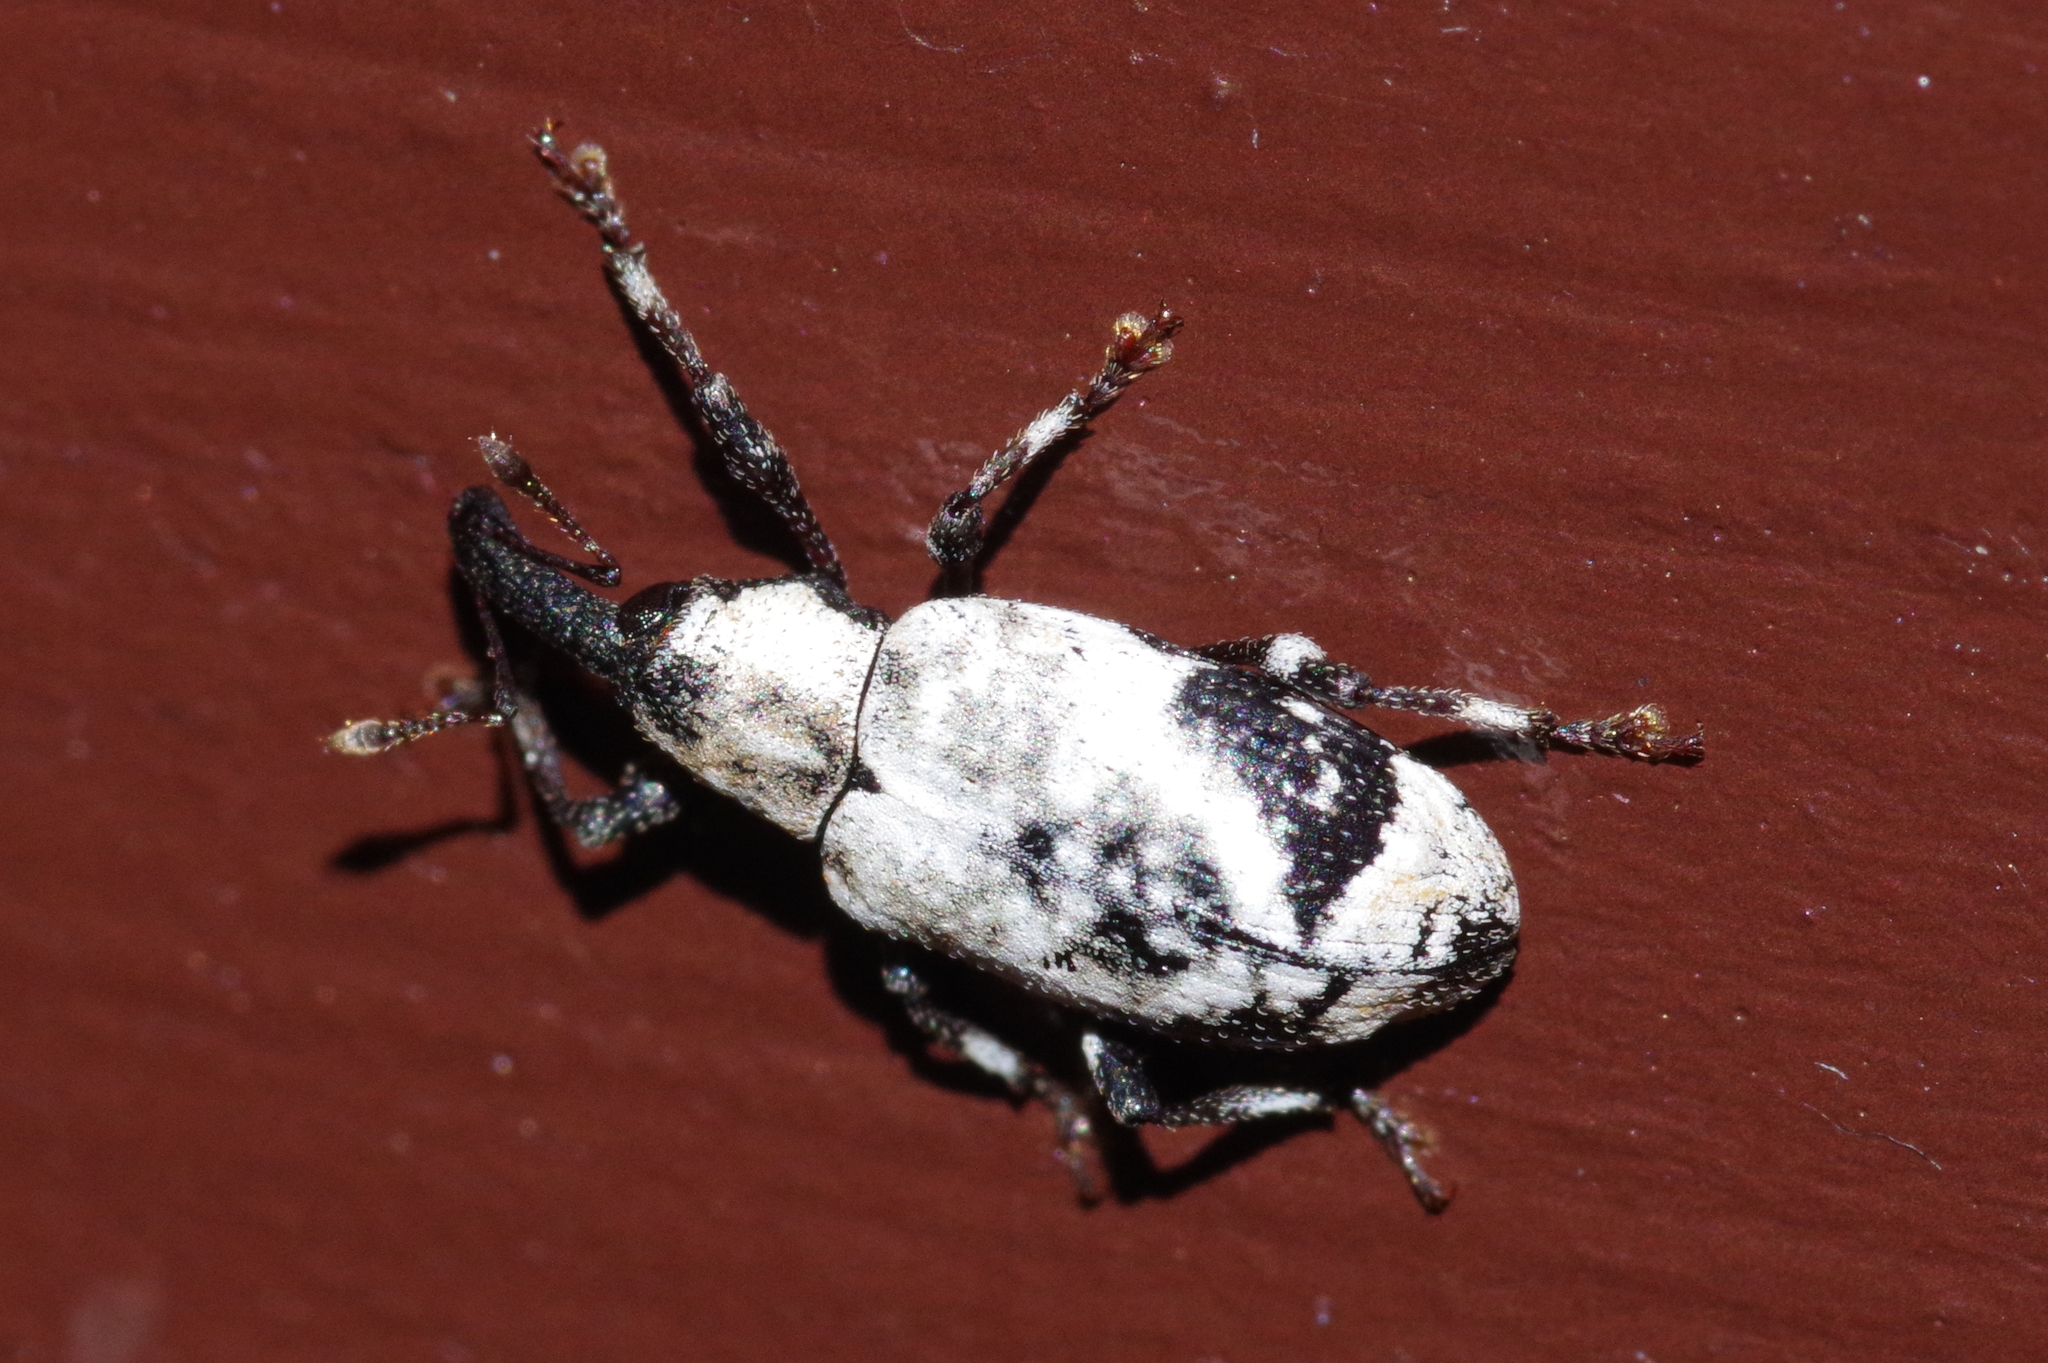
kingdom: Animalia
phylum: Arthropoda
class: Insecta
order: Coleoptera
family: Curculionidae
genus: Hesychobius
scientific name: Hesychobius vossi
